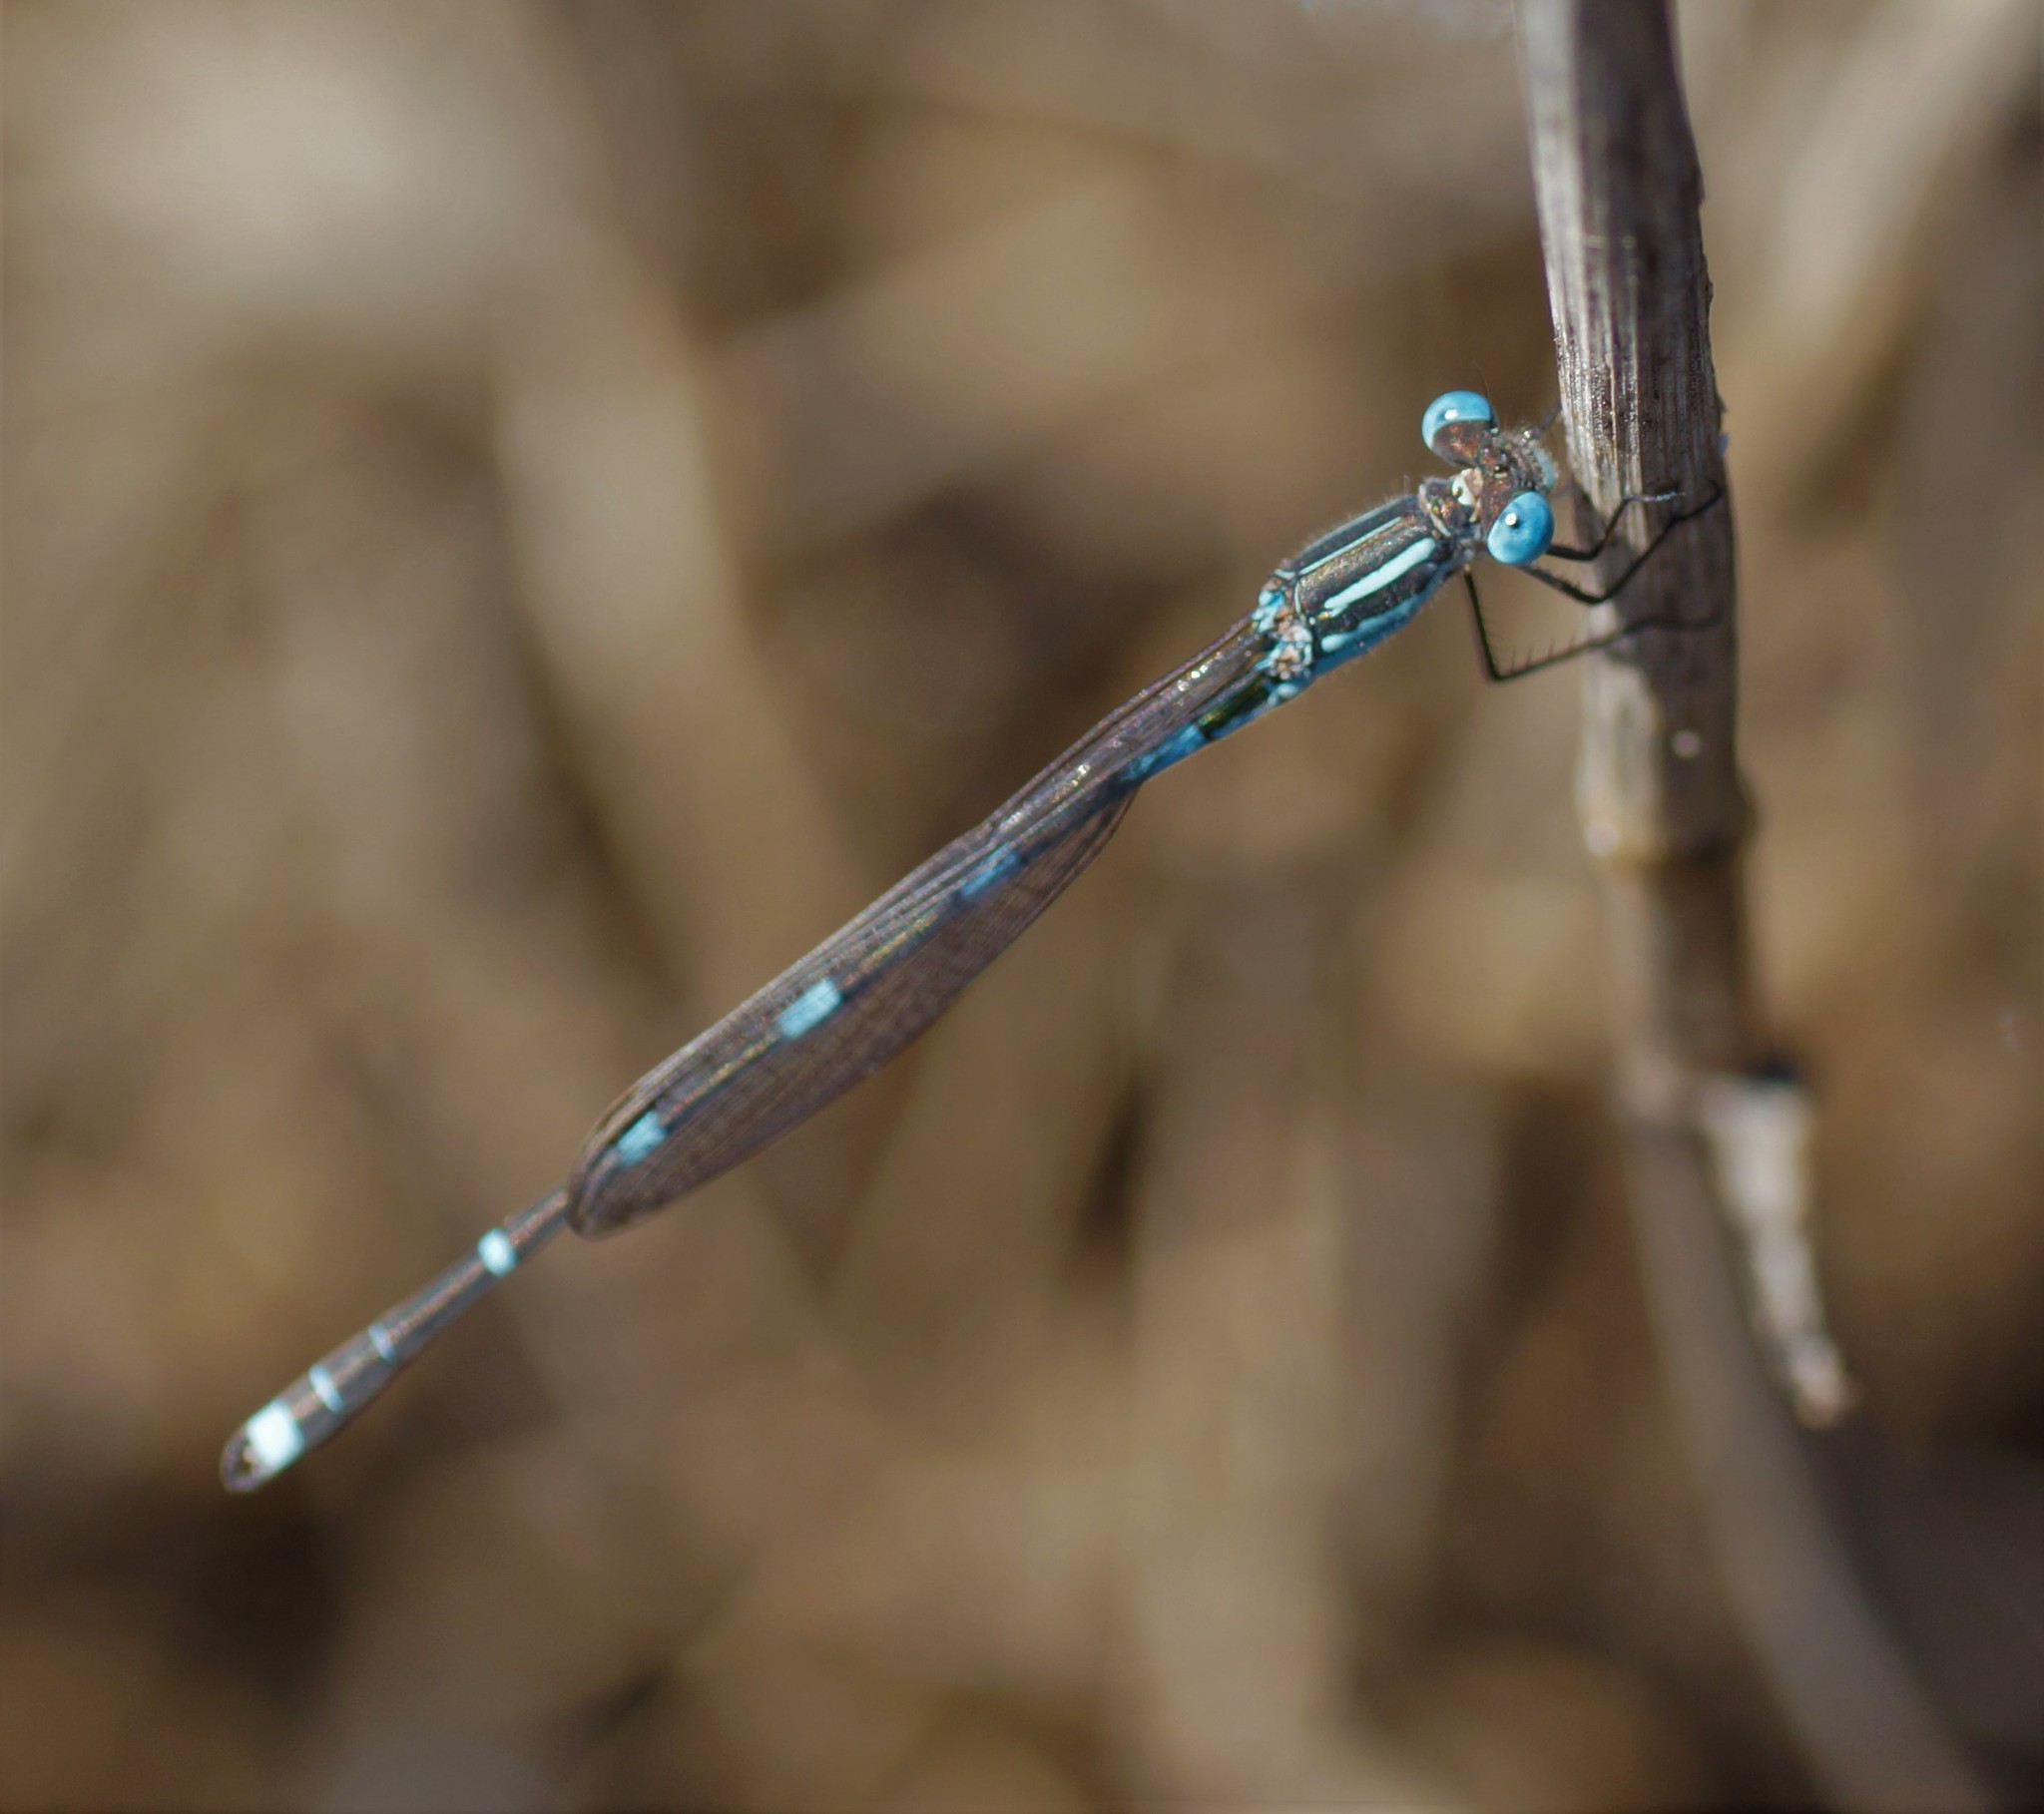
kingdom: Animalia
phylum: Arthropoda
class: Insecta
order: Odonata
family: Lestidae
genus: Austrolestes
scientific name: Austrolestes leda
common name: Wandering ringtail
